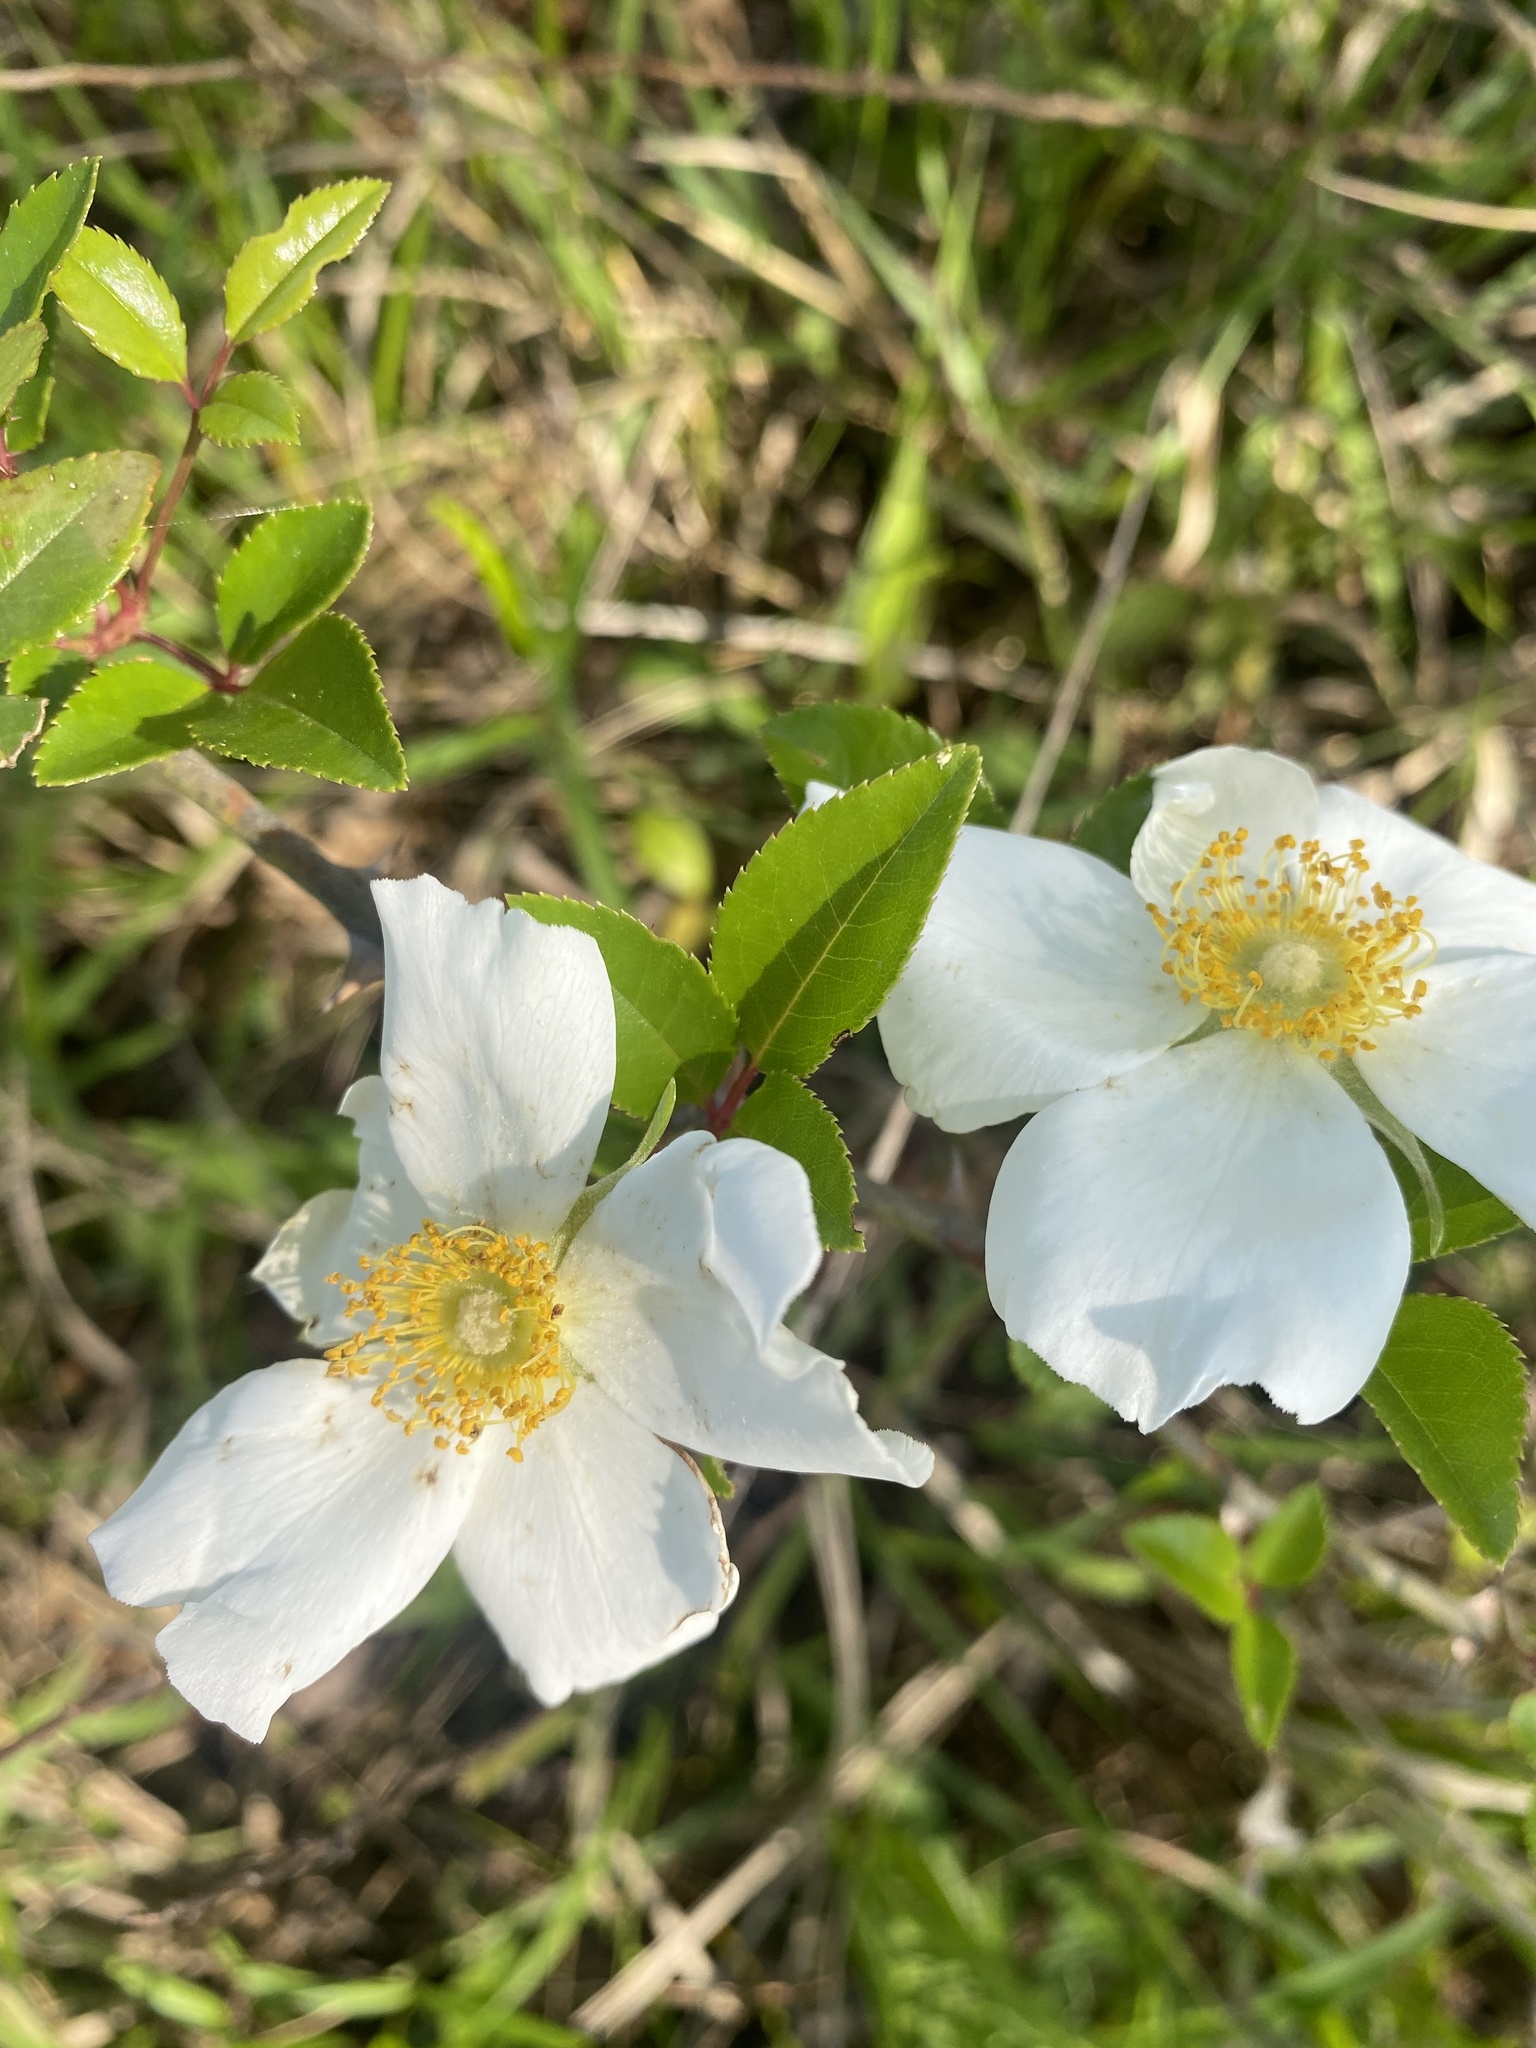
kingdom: Plantae
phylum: Tracheophyta
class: Magnoliopsida
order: Rosales
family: Rosaceae
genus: Rosa
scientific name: Rosa laevigata
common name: Cherokee rose
